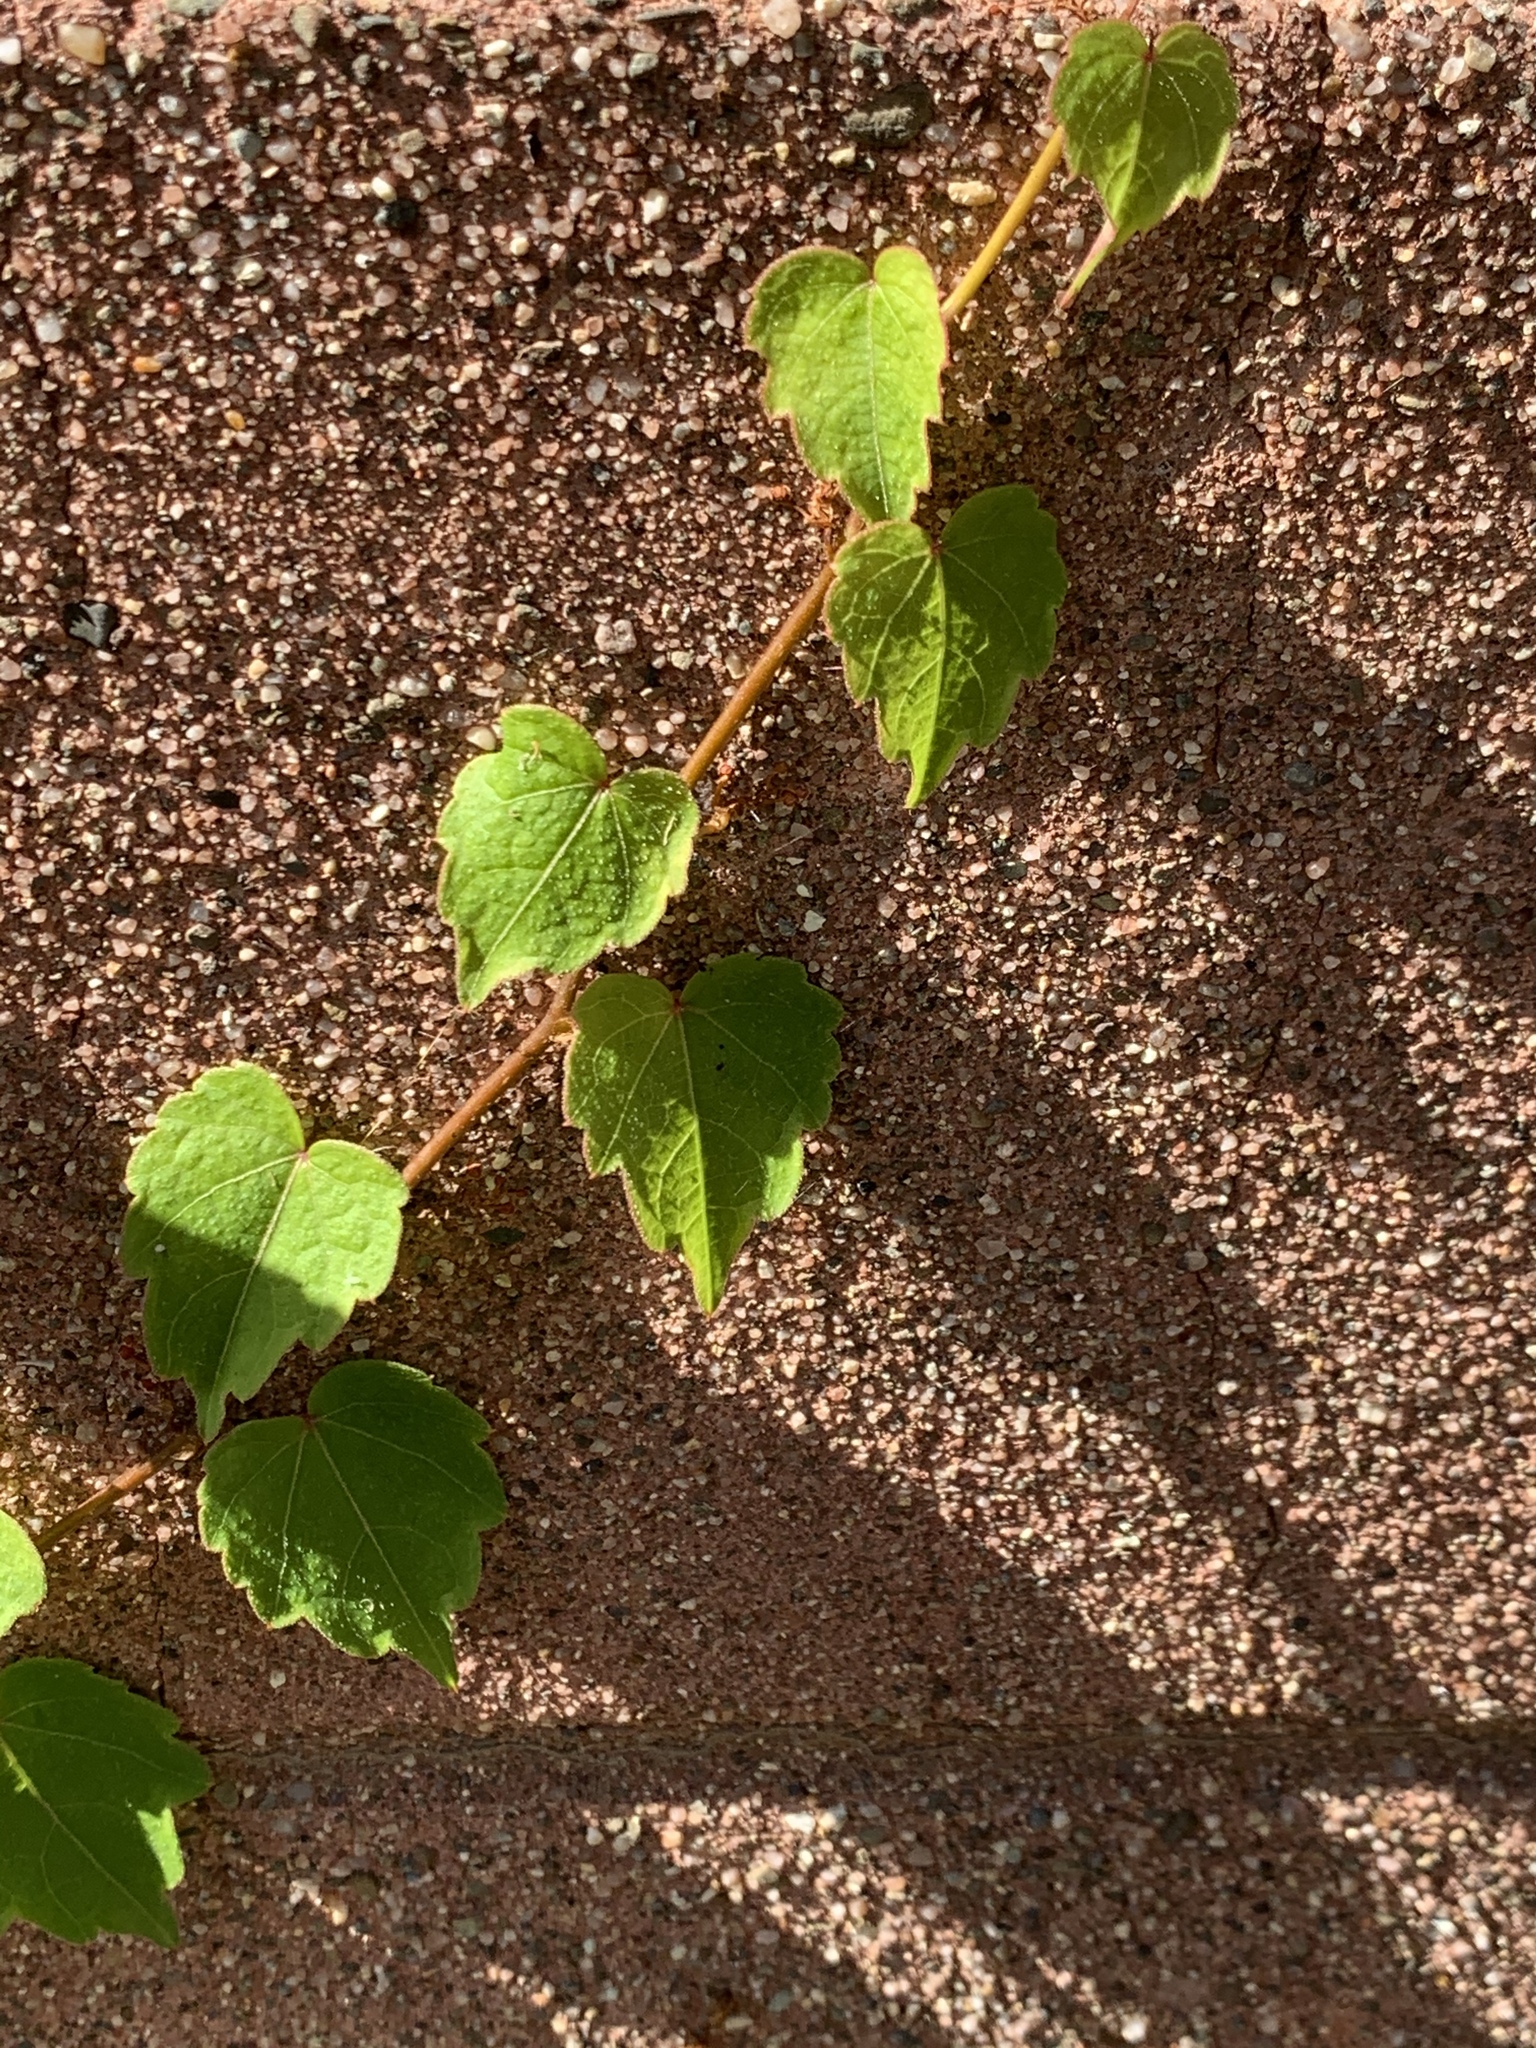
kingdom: Plantae
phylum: Tracheophyta
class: Magnoliopsida
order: Vitales
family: Vitaceae
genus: Parthenocissus
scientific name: Parthenocissus tricuspidata
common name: Boston ivy
